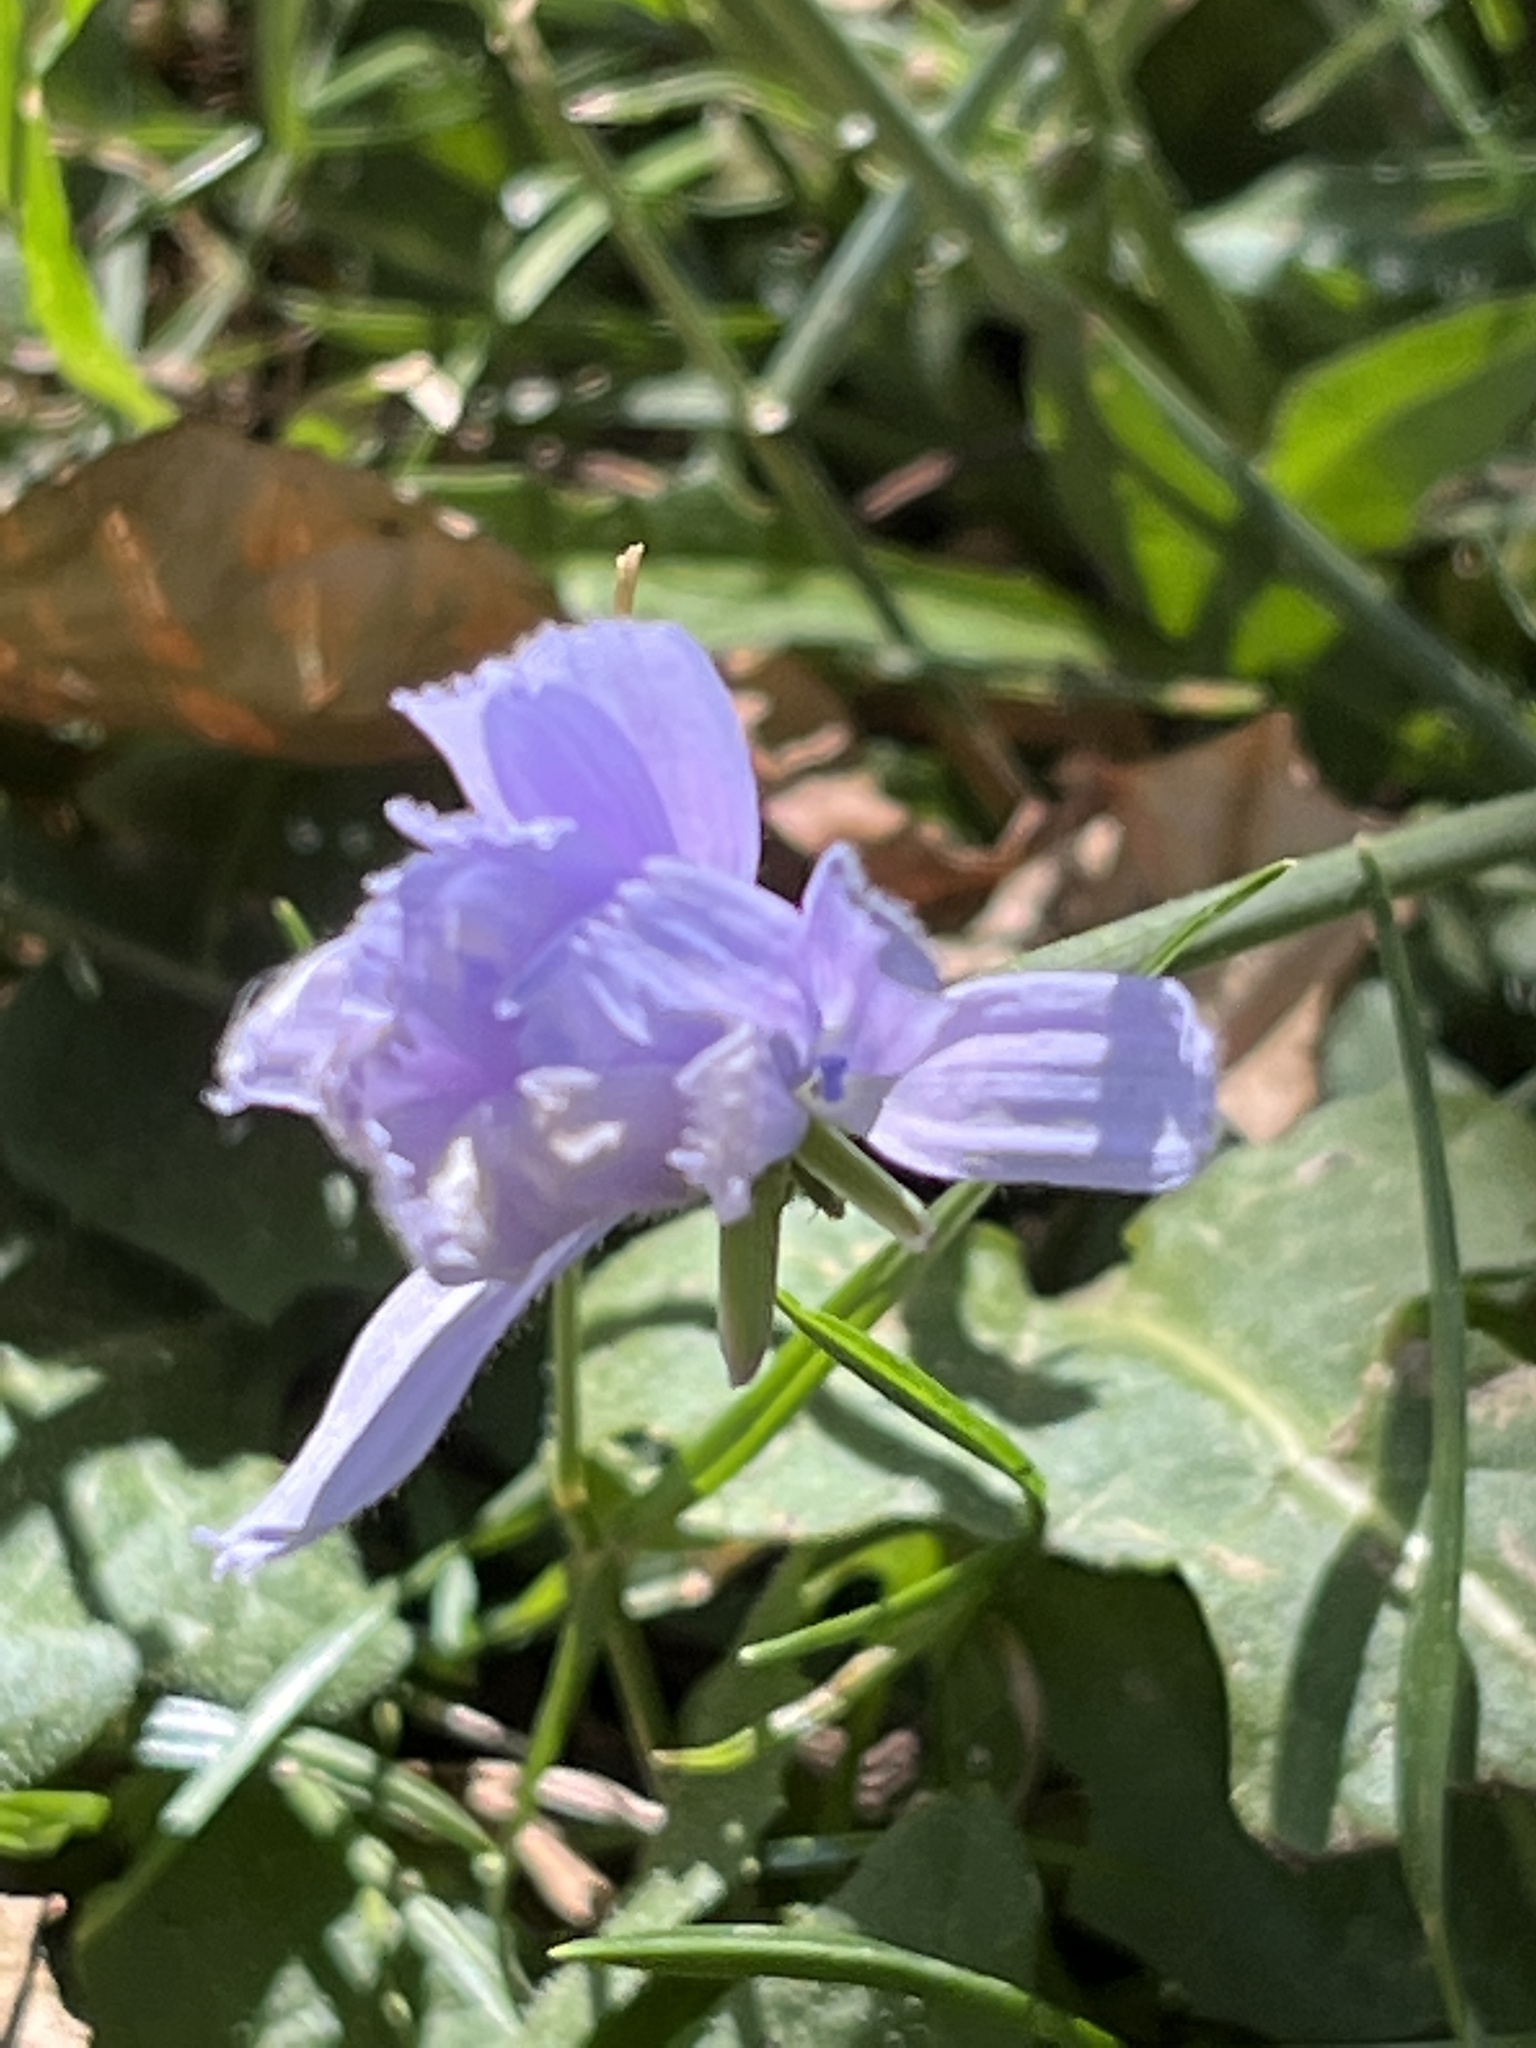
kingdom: Plantae
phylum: Tracheophyta
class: Magnoliopsida
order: Asterales
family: Asteraceae
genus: Cichorium
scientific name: Cichorium intybus
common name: Chicory
